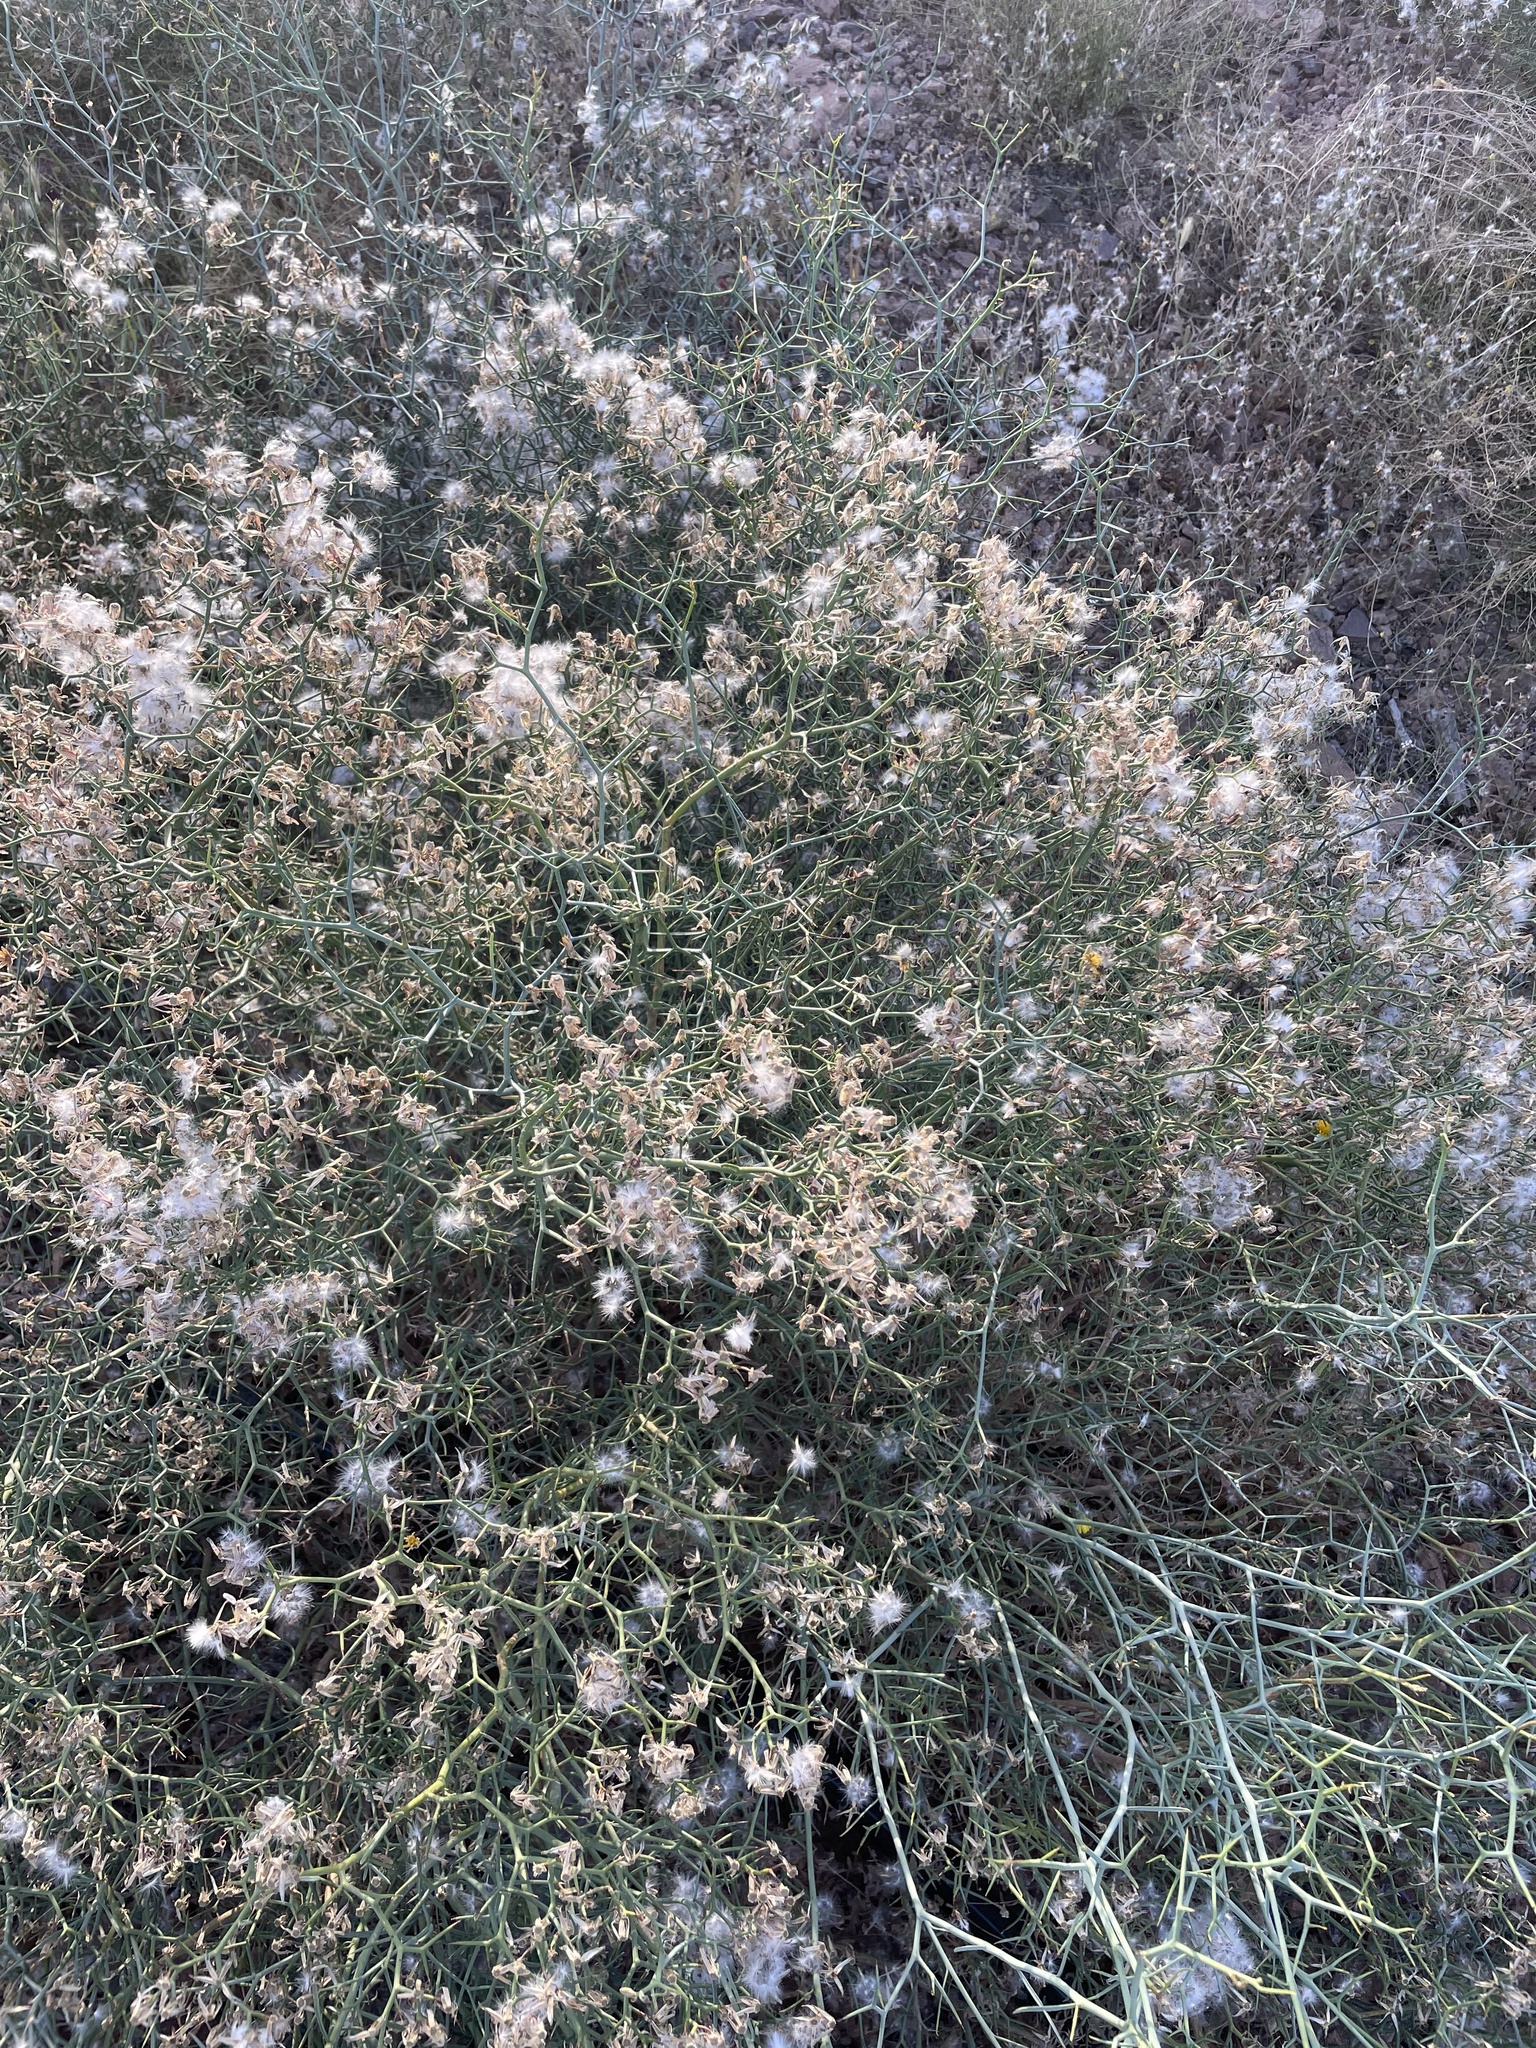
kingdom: Plantae
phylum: Tracheophyta
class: Magnoliopsida
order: Asterales
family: Asteraceae
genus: Launaea
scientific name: Launaea arborescens
